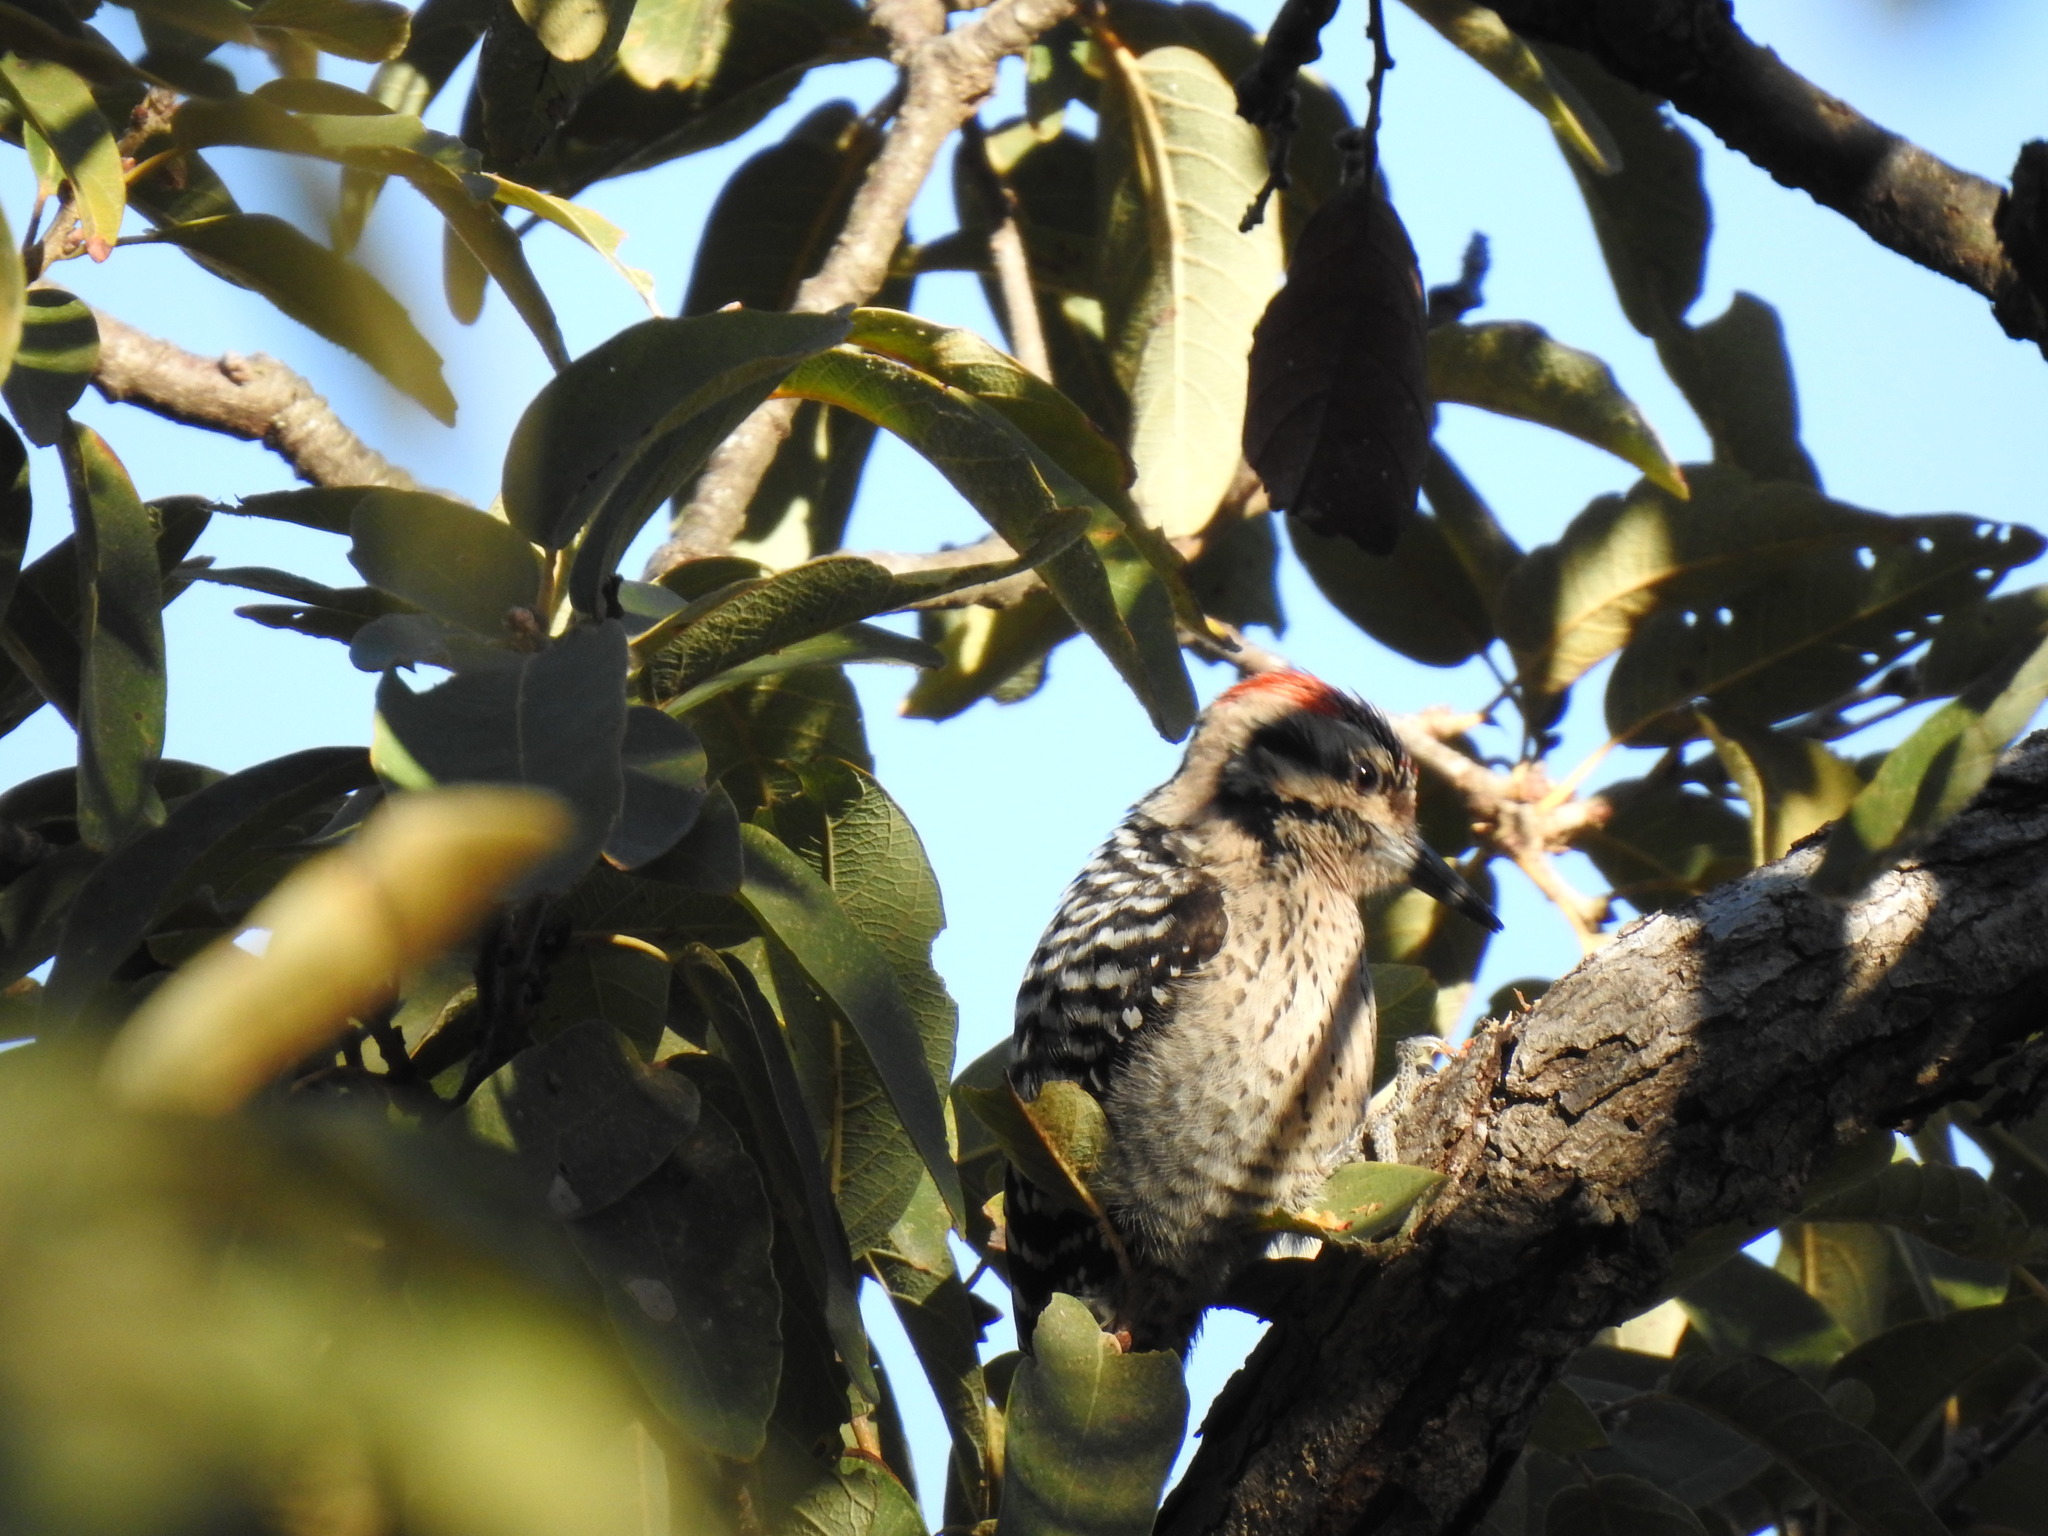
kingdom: Animalia
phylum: Chordata
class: Aves
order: Piciformes
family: Picidae
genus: Dryobates
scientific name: Dryobates scalaris
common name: Ladder-backed woodpecker
